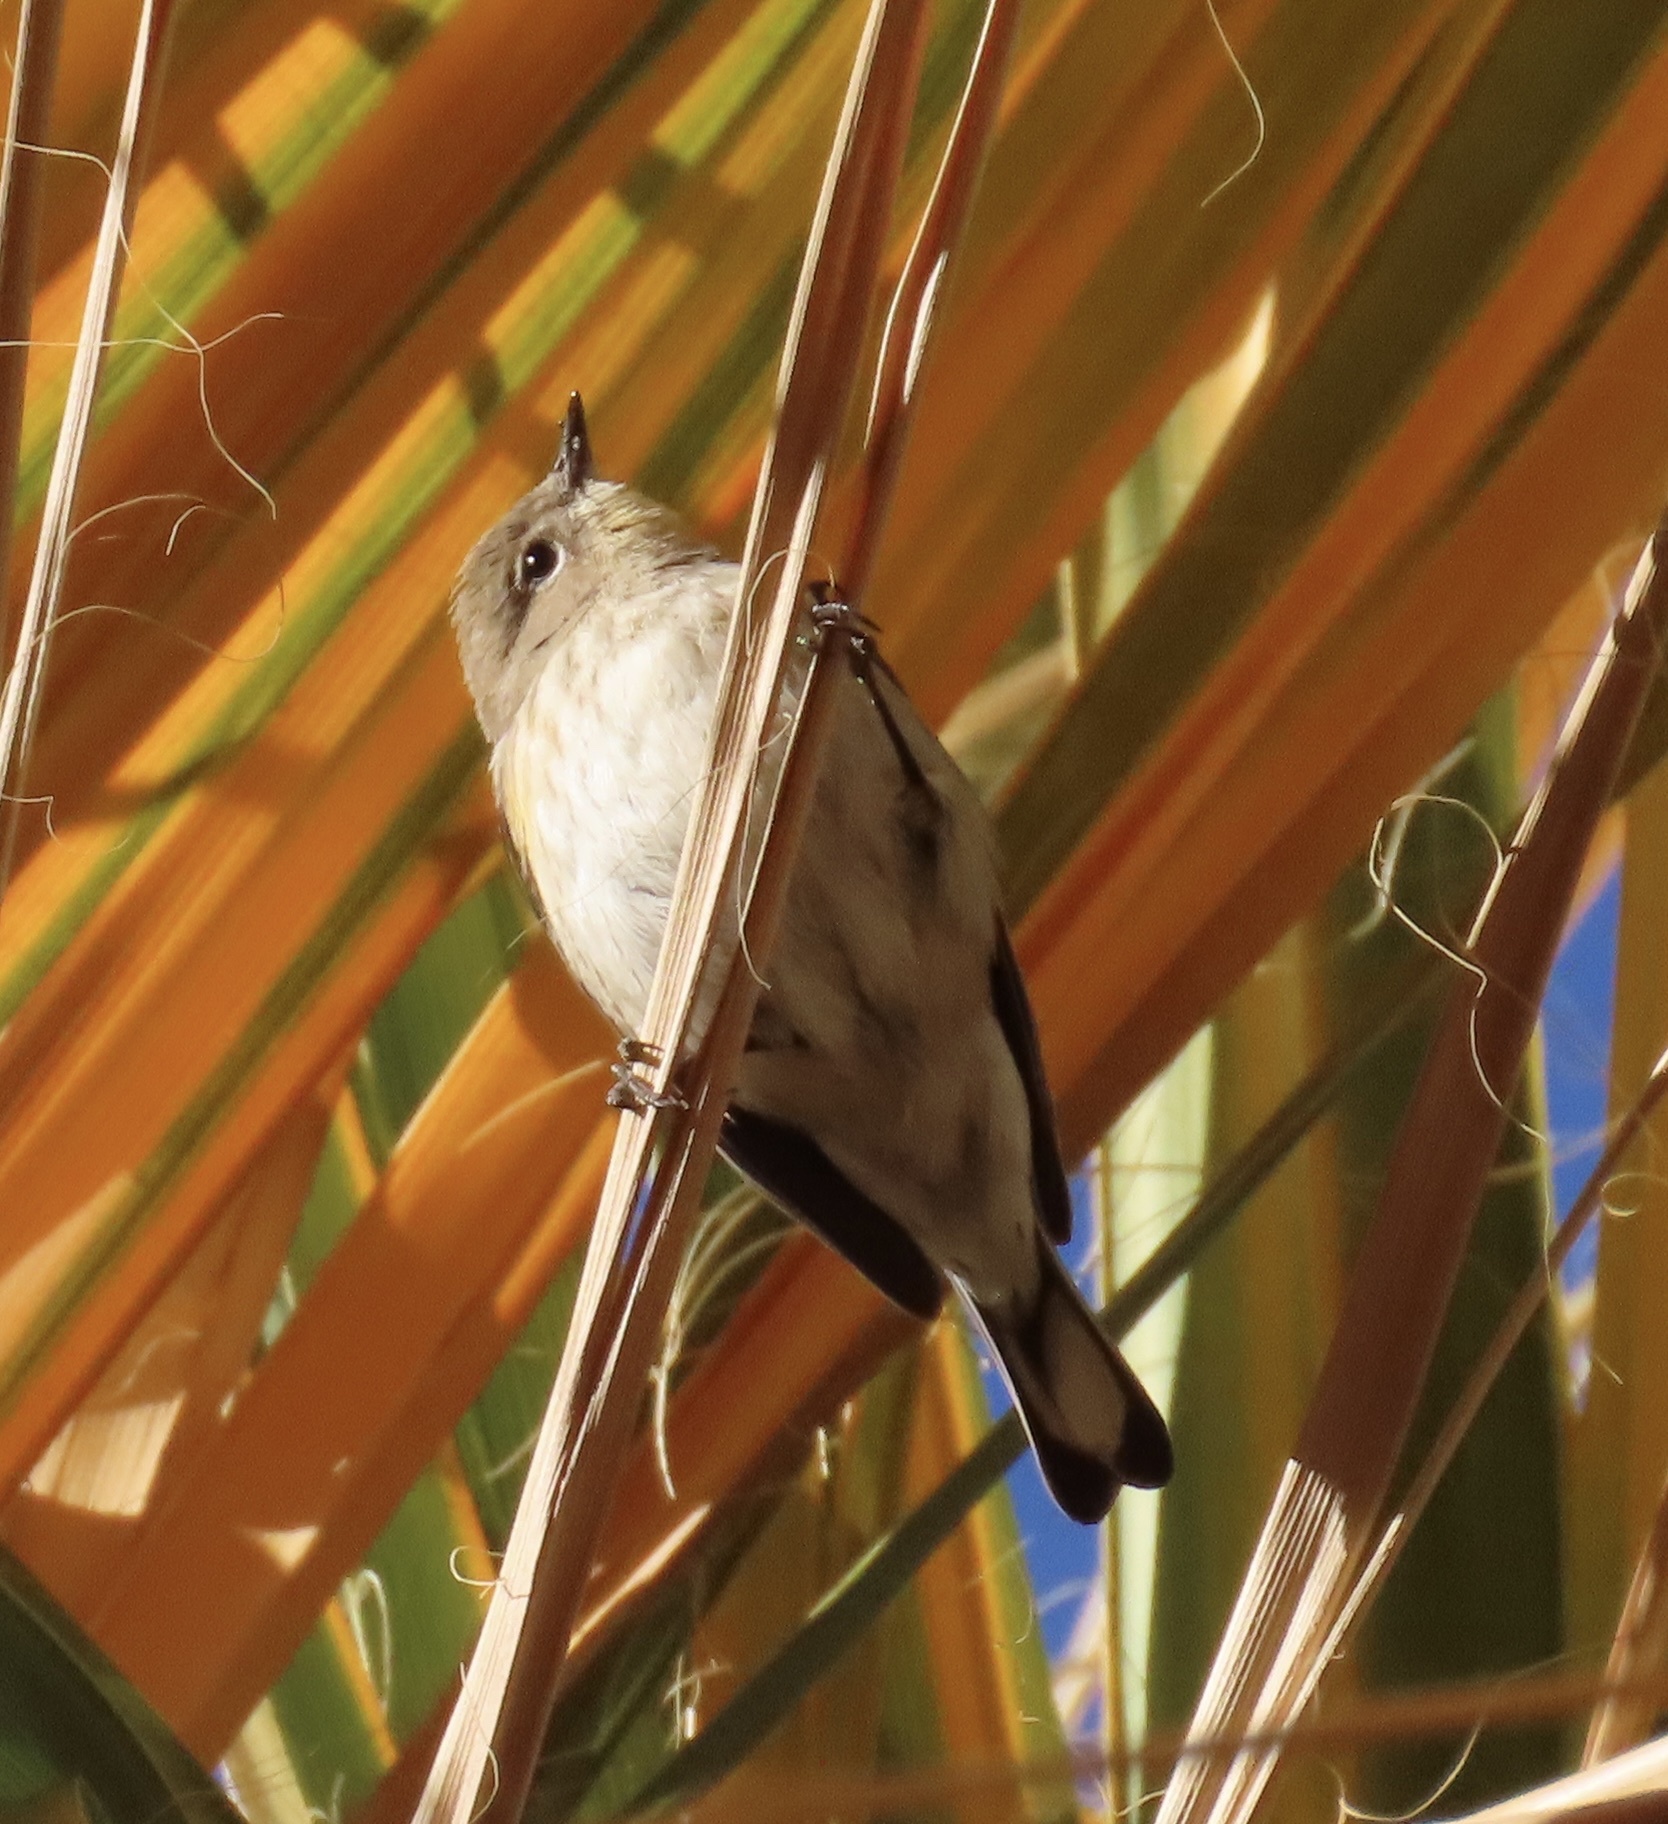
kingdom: Animalia
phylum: Chordata
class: Aves
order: Passeriformes
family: Parulidae
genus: Setophaga
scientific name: Setophaga coronata
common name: Myrtle warbler
